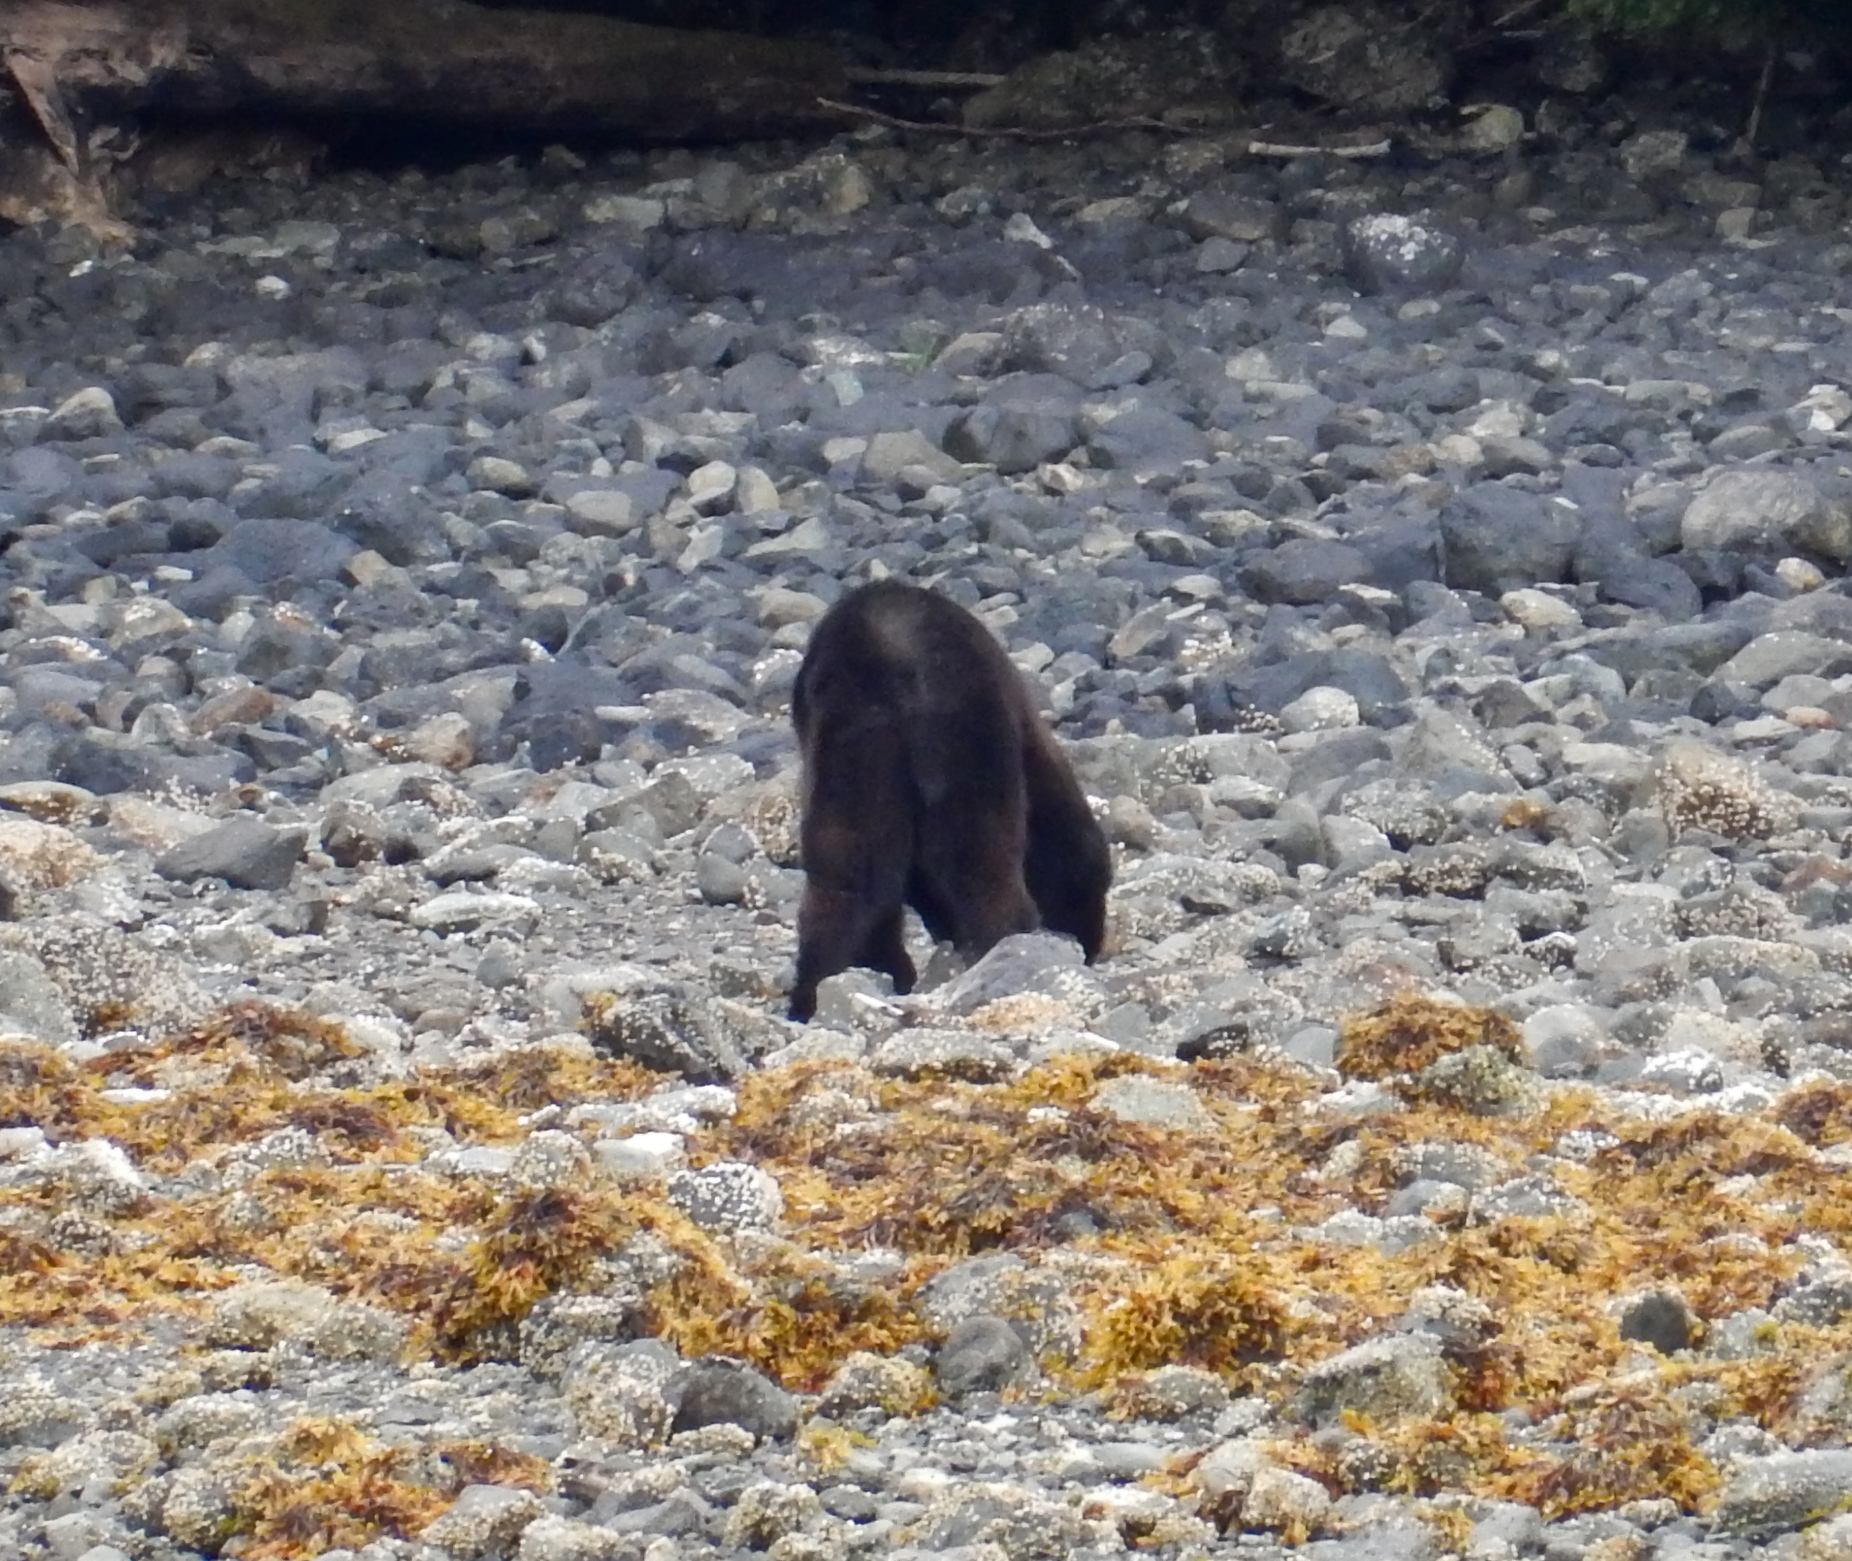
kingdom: Animalia
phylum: Chordata
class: Mammalia
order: Carnivora
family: Ursidae
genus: Ursus
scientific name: Ursus americanus
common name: American black bear
